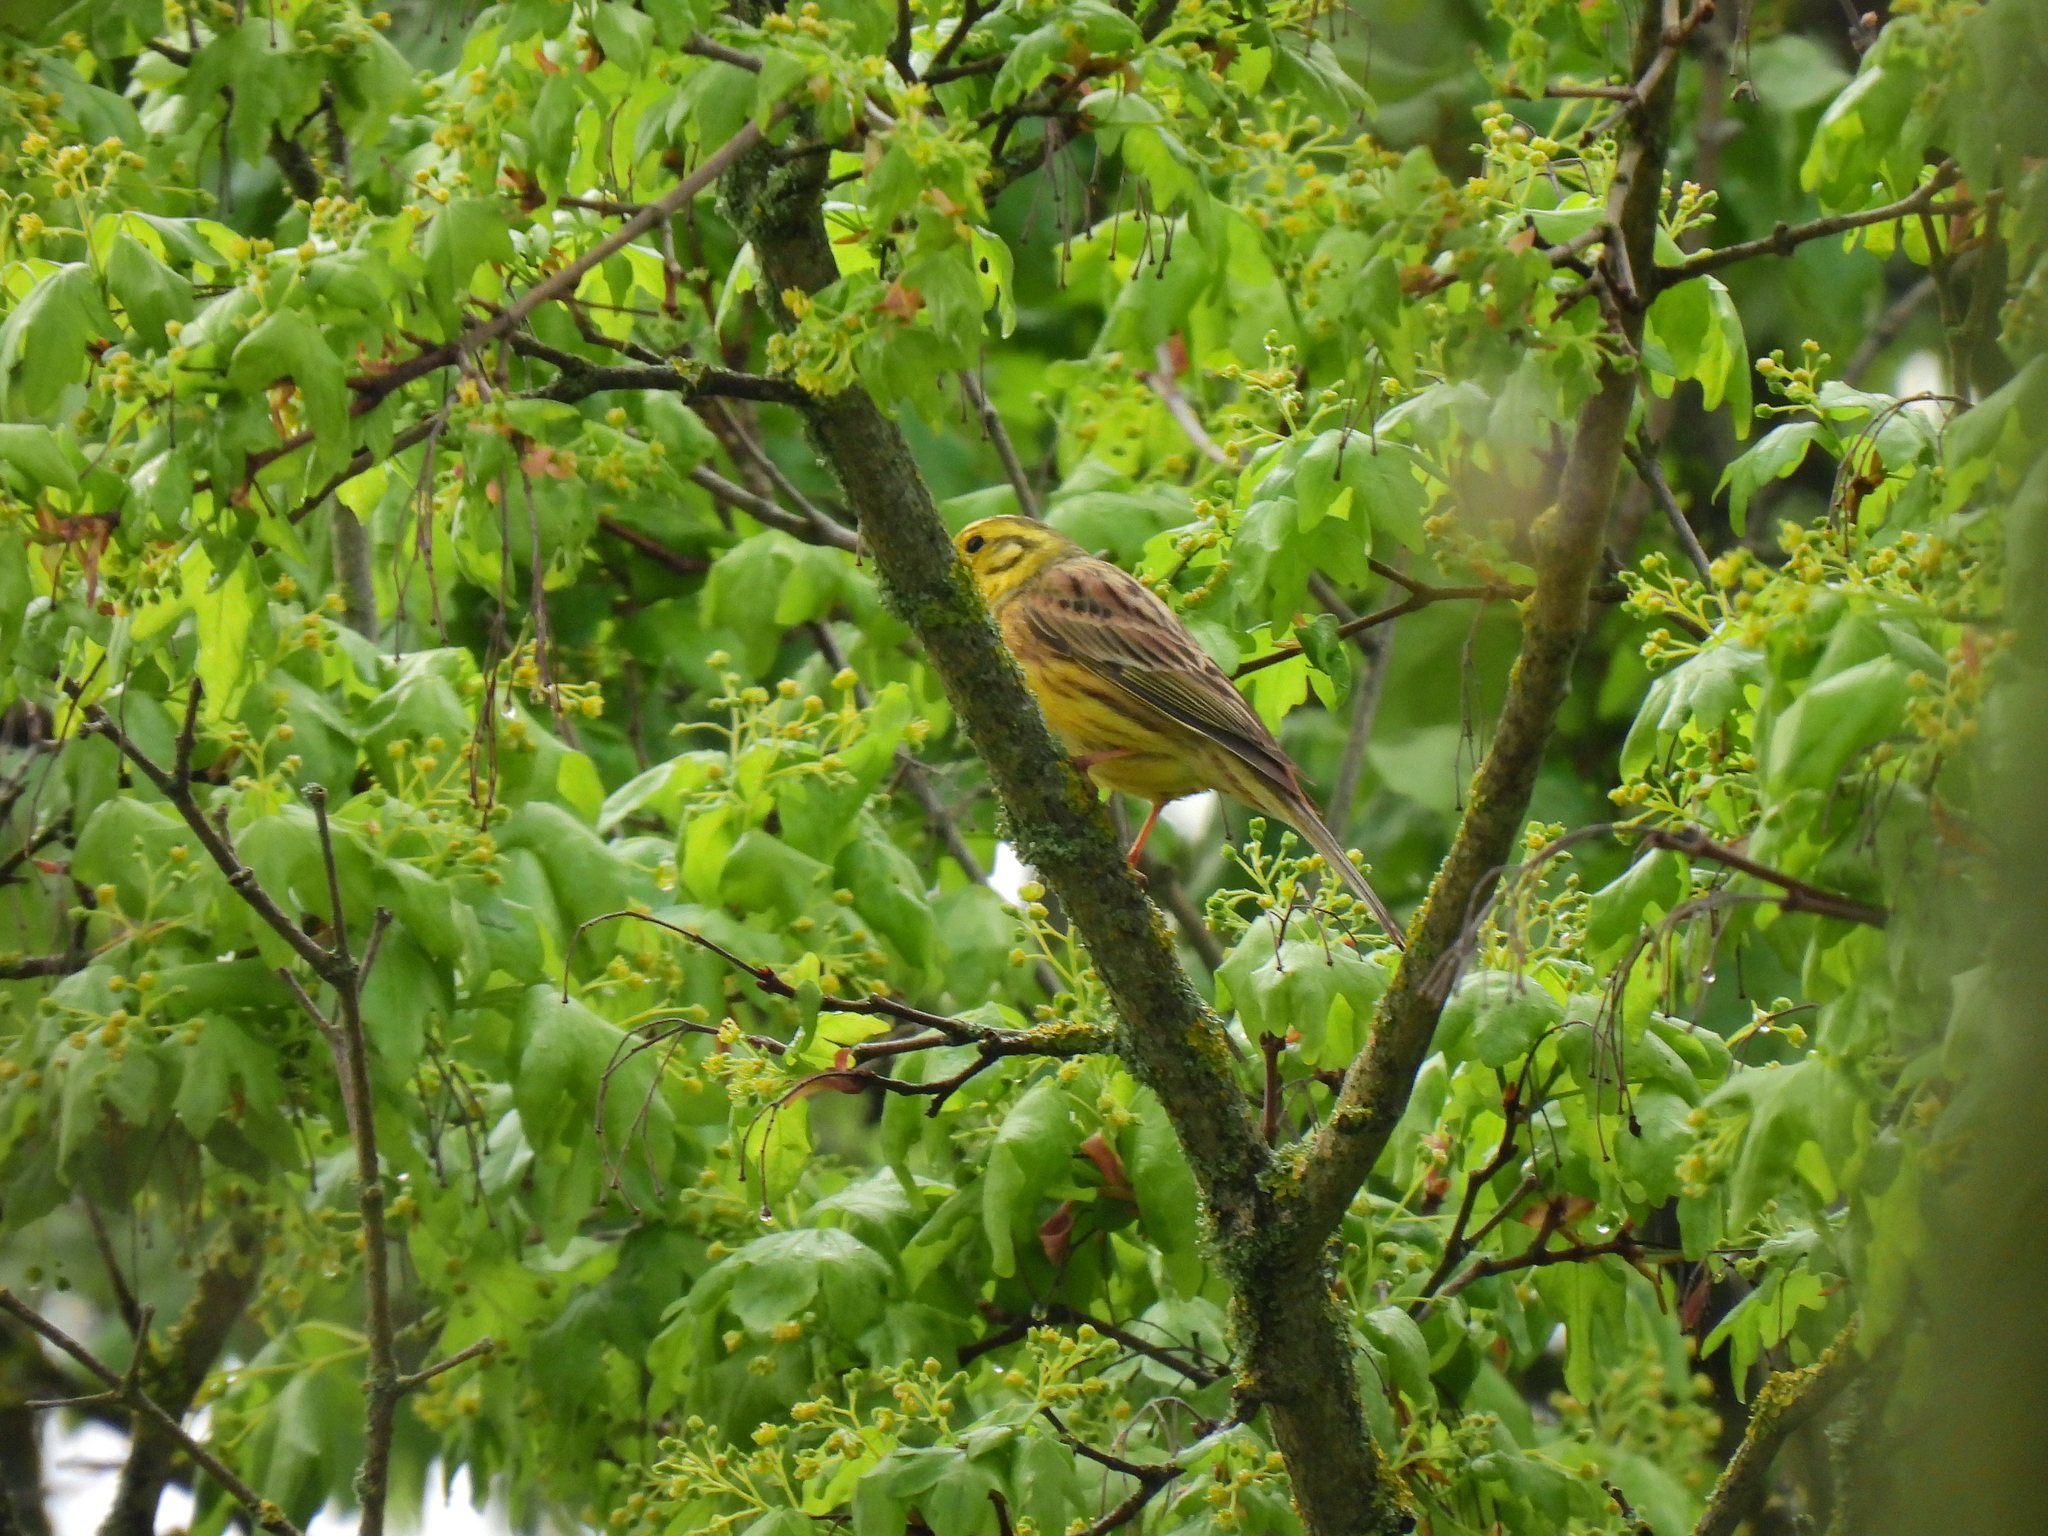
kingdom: Animalia
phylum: Chordata
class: Aves
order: Passeriformes
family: Emberizidae
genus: Emberiza
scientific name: Emberiza citrinella
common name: Yellowhammer
